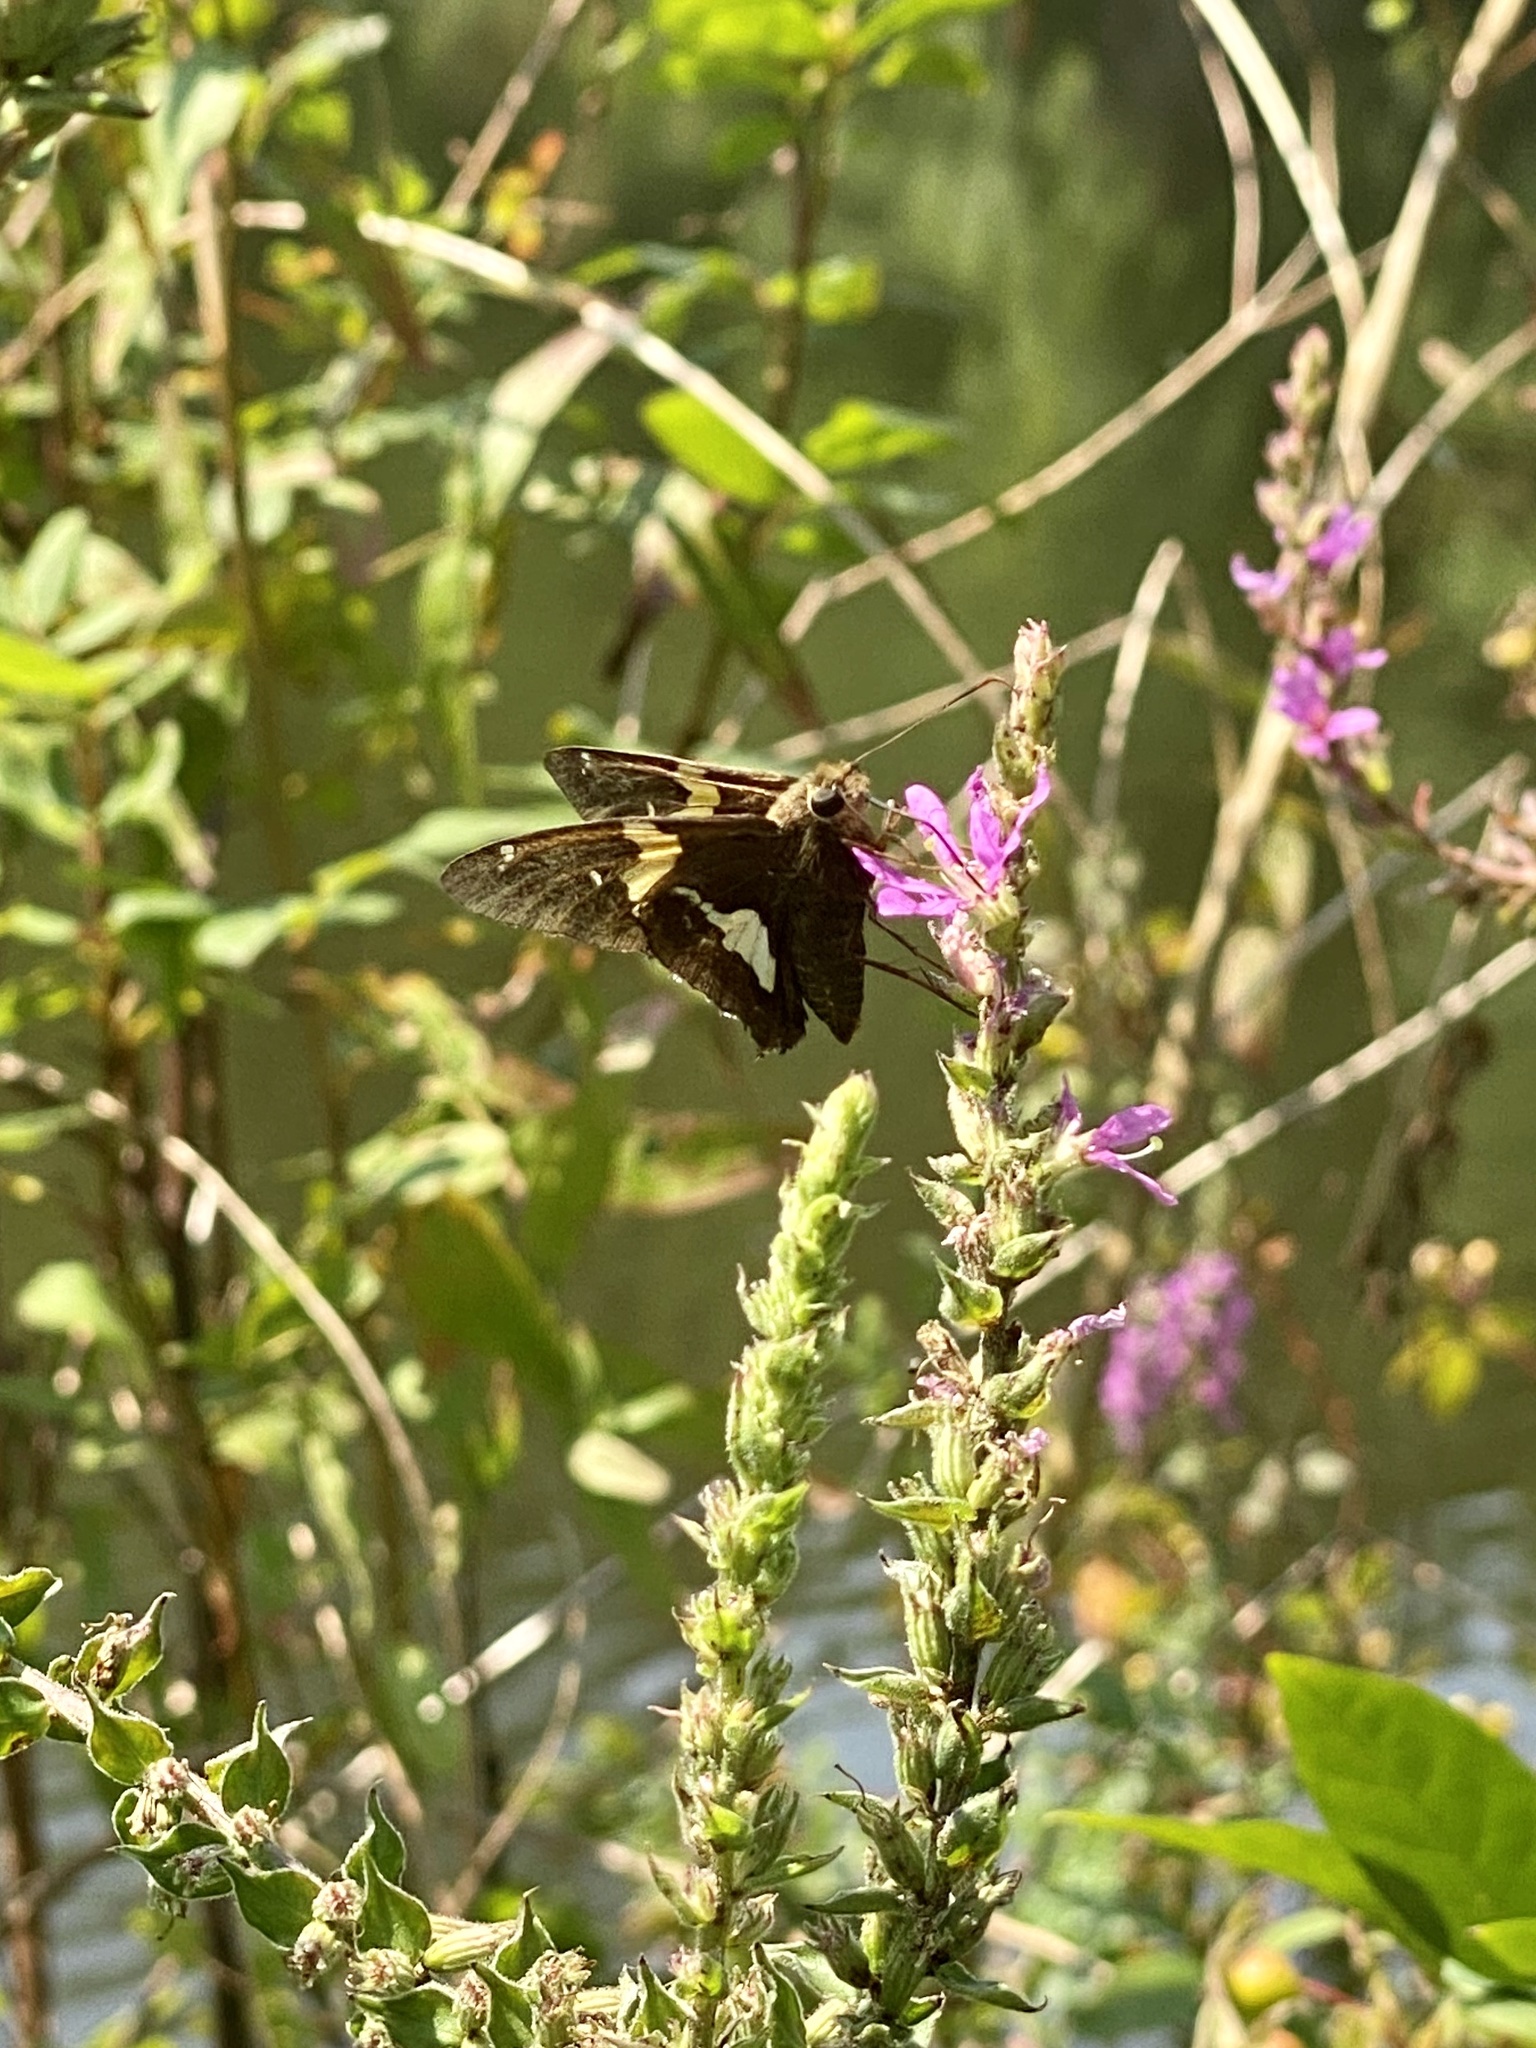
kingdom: Animalia
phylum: Arthropoda
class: Insecta
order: Lepidoptera
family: Hesperiidae
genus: Epargyreus
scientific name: Epargyreus clarus
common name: Silver-spotted skipper
